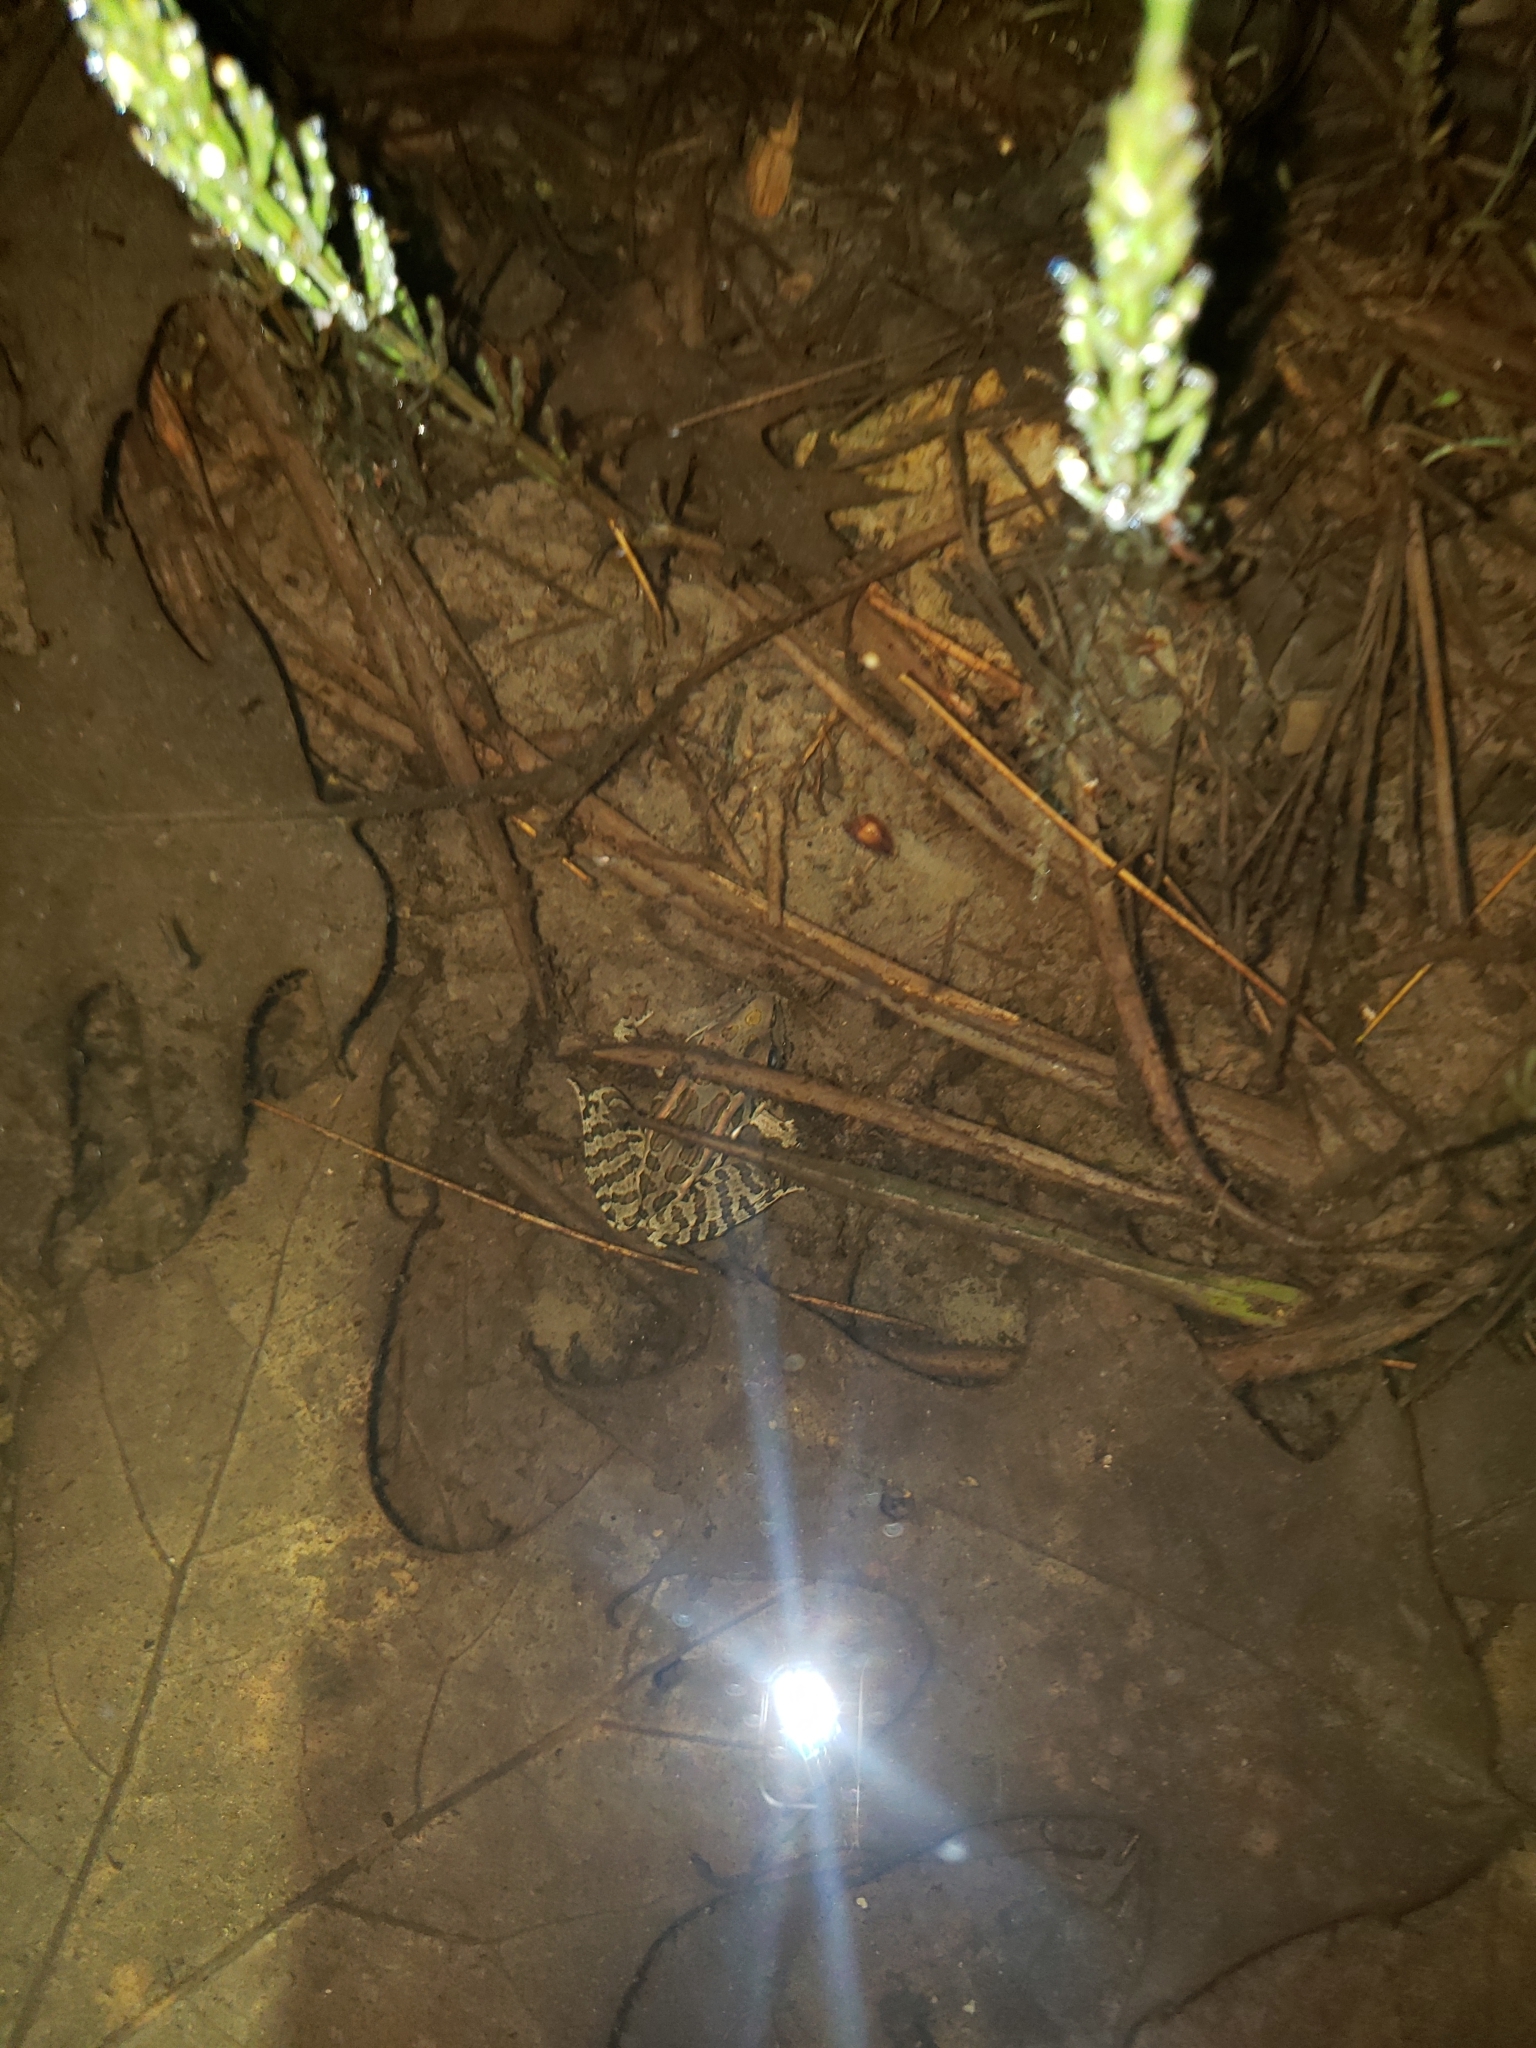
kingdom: Animalia
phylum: Chordata
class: Amphibia
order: Anura
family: Ranidae
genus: Lithobates
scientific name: Lithobates palustris
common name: Pickerel frog
